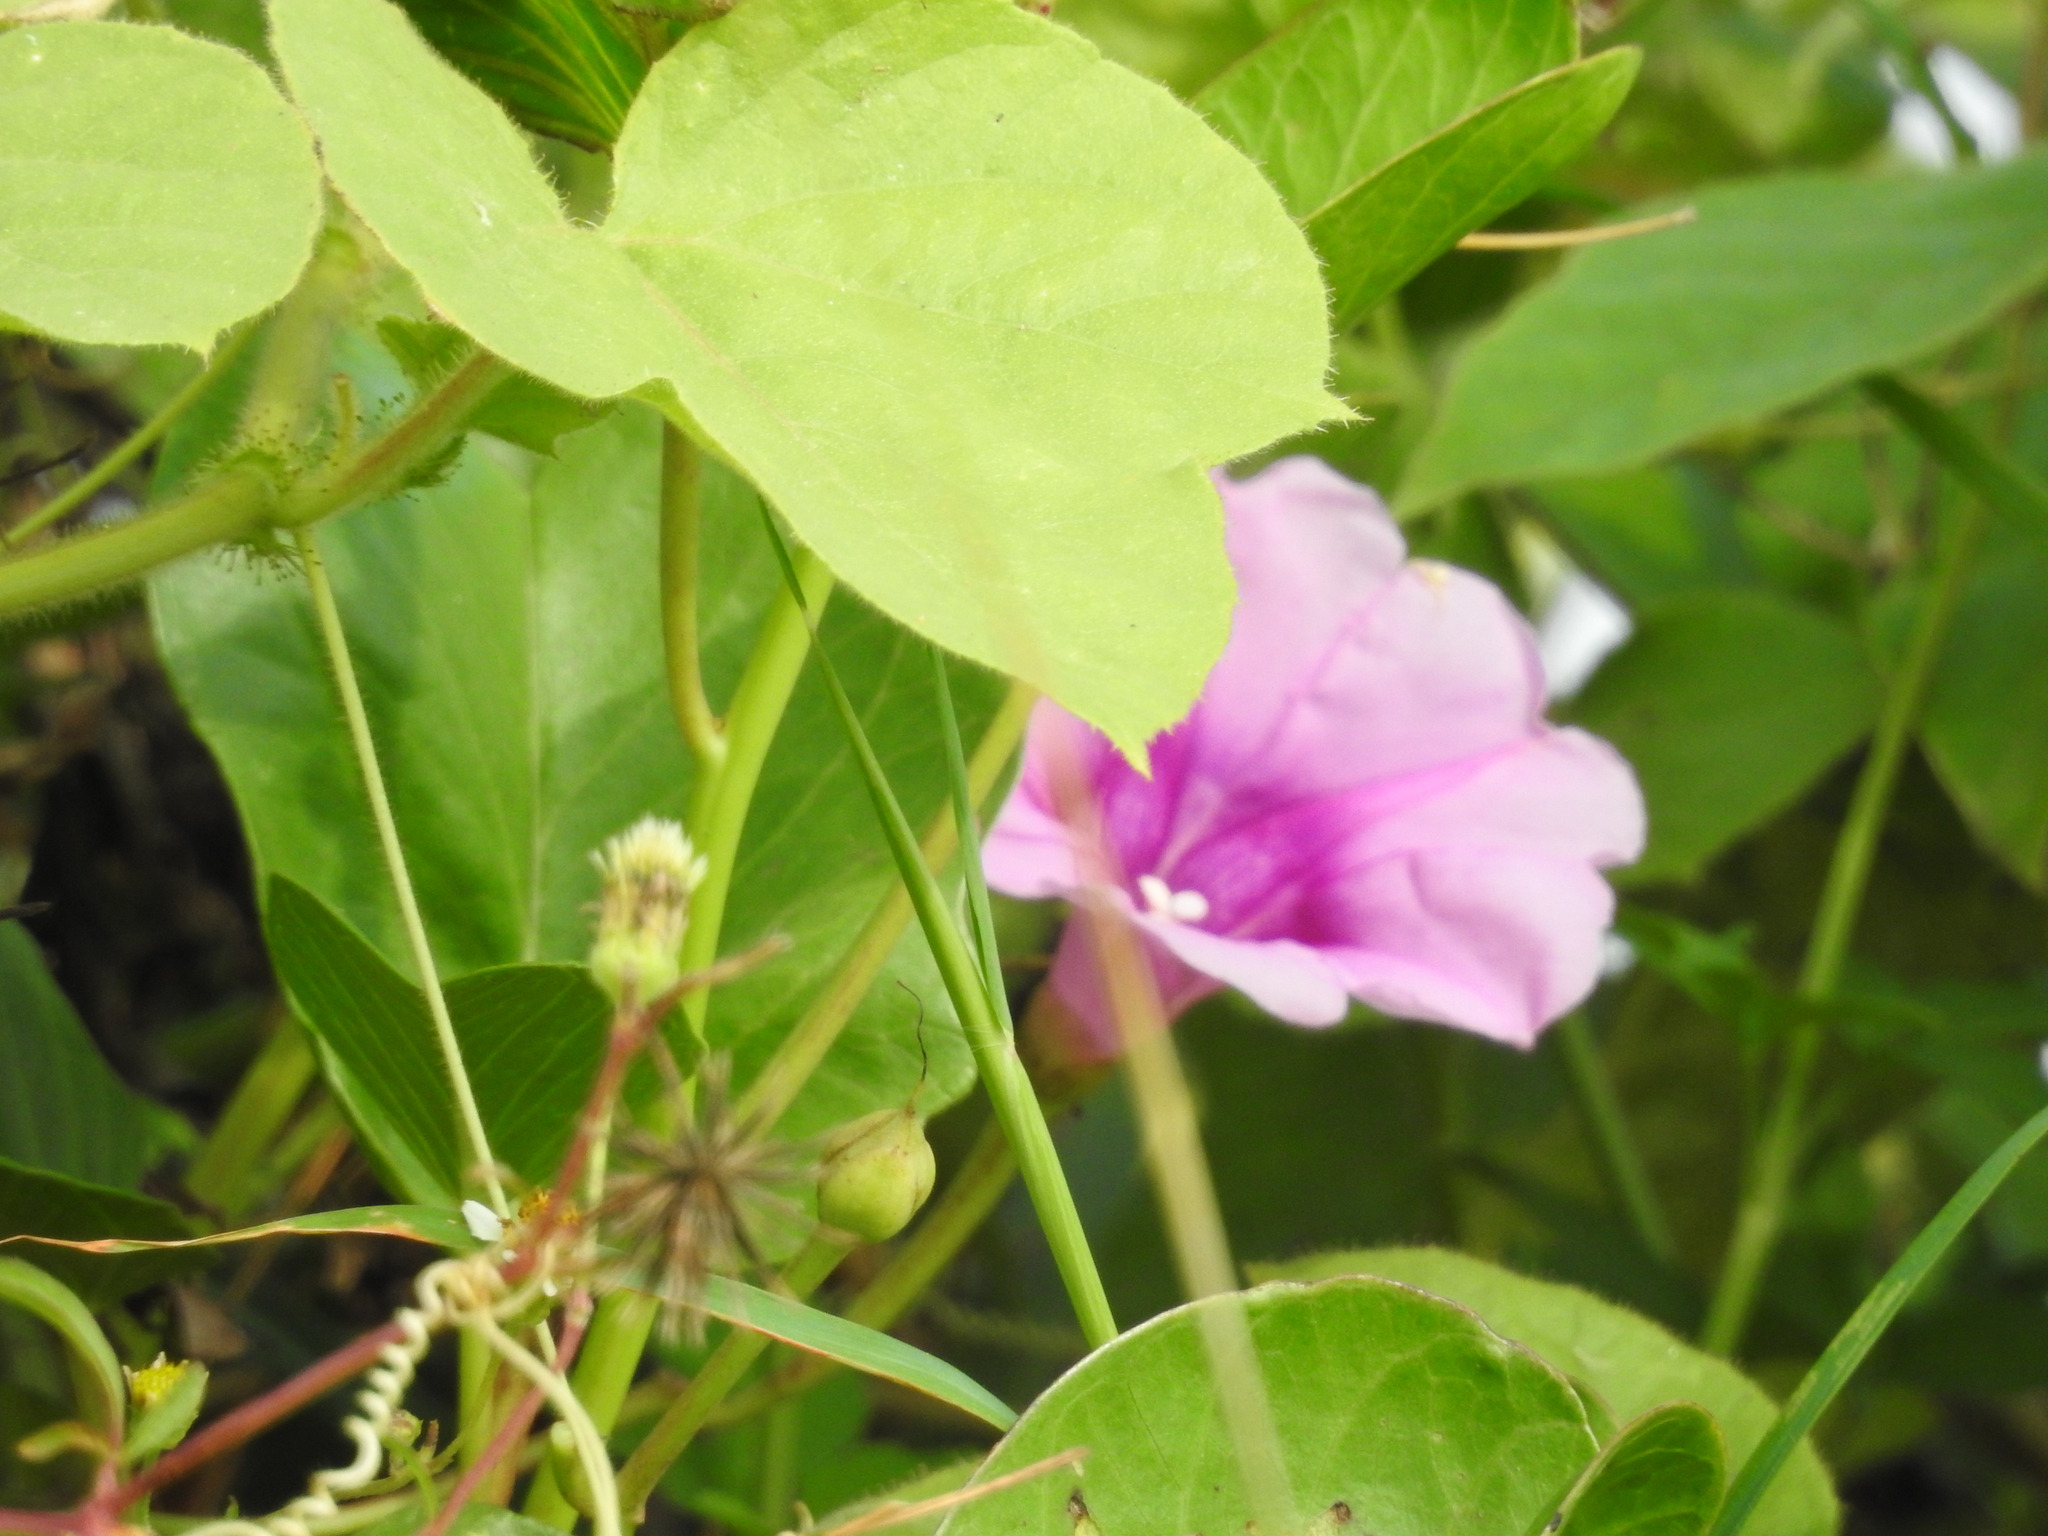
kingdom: Plantae
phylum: Tracheophyta
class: Magnoliopsida
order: Solanales
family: Convolvulaceae
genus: Ipomoea
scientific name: Ipomoea pes-caprae
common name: Beach morning glory
